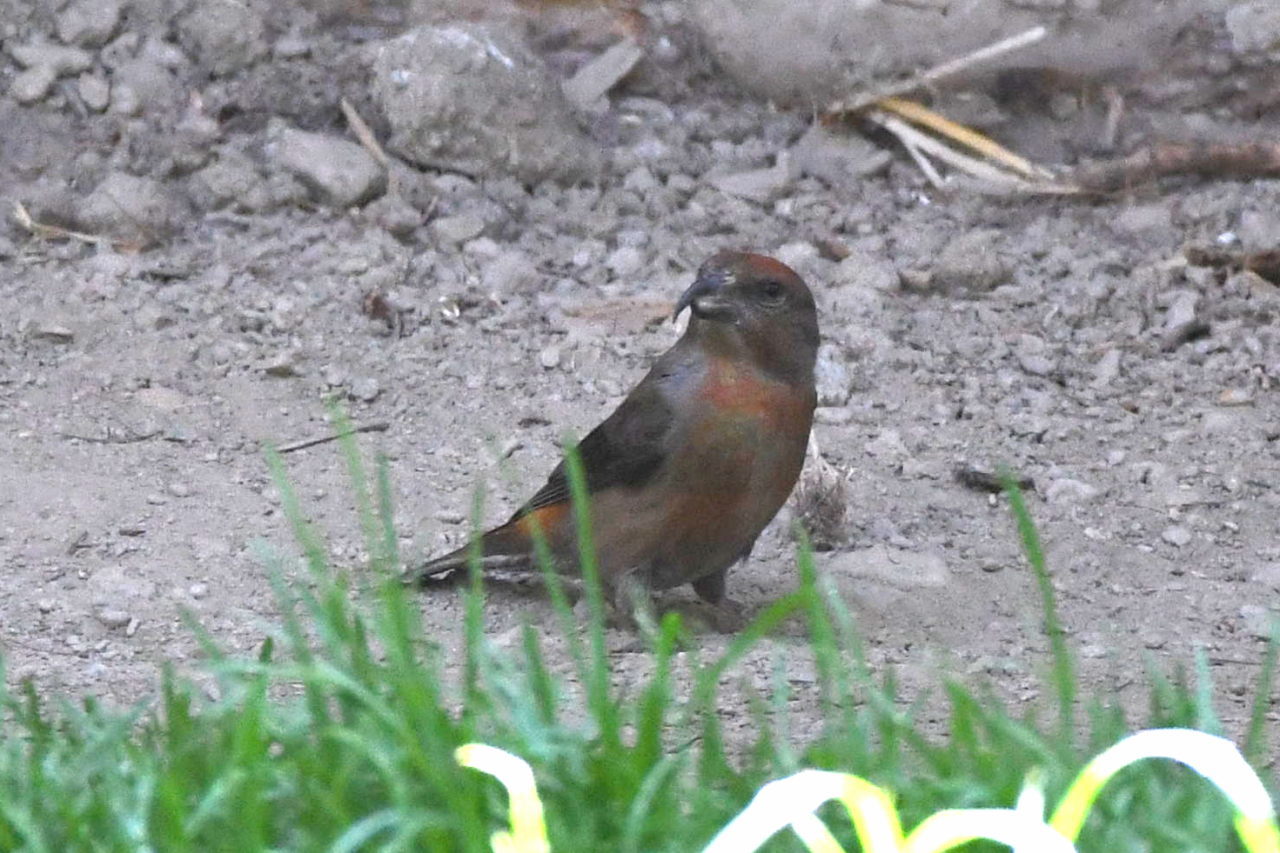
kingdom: Animalia
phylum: Chordata
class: Aves
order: Passeriformes
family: Fringillidae
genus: Loxia
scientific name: Loxia curvirostra
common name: Red crossbill
